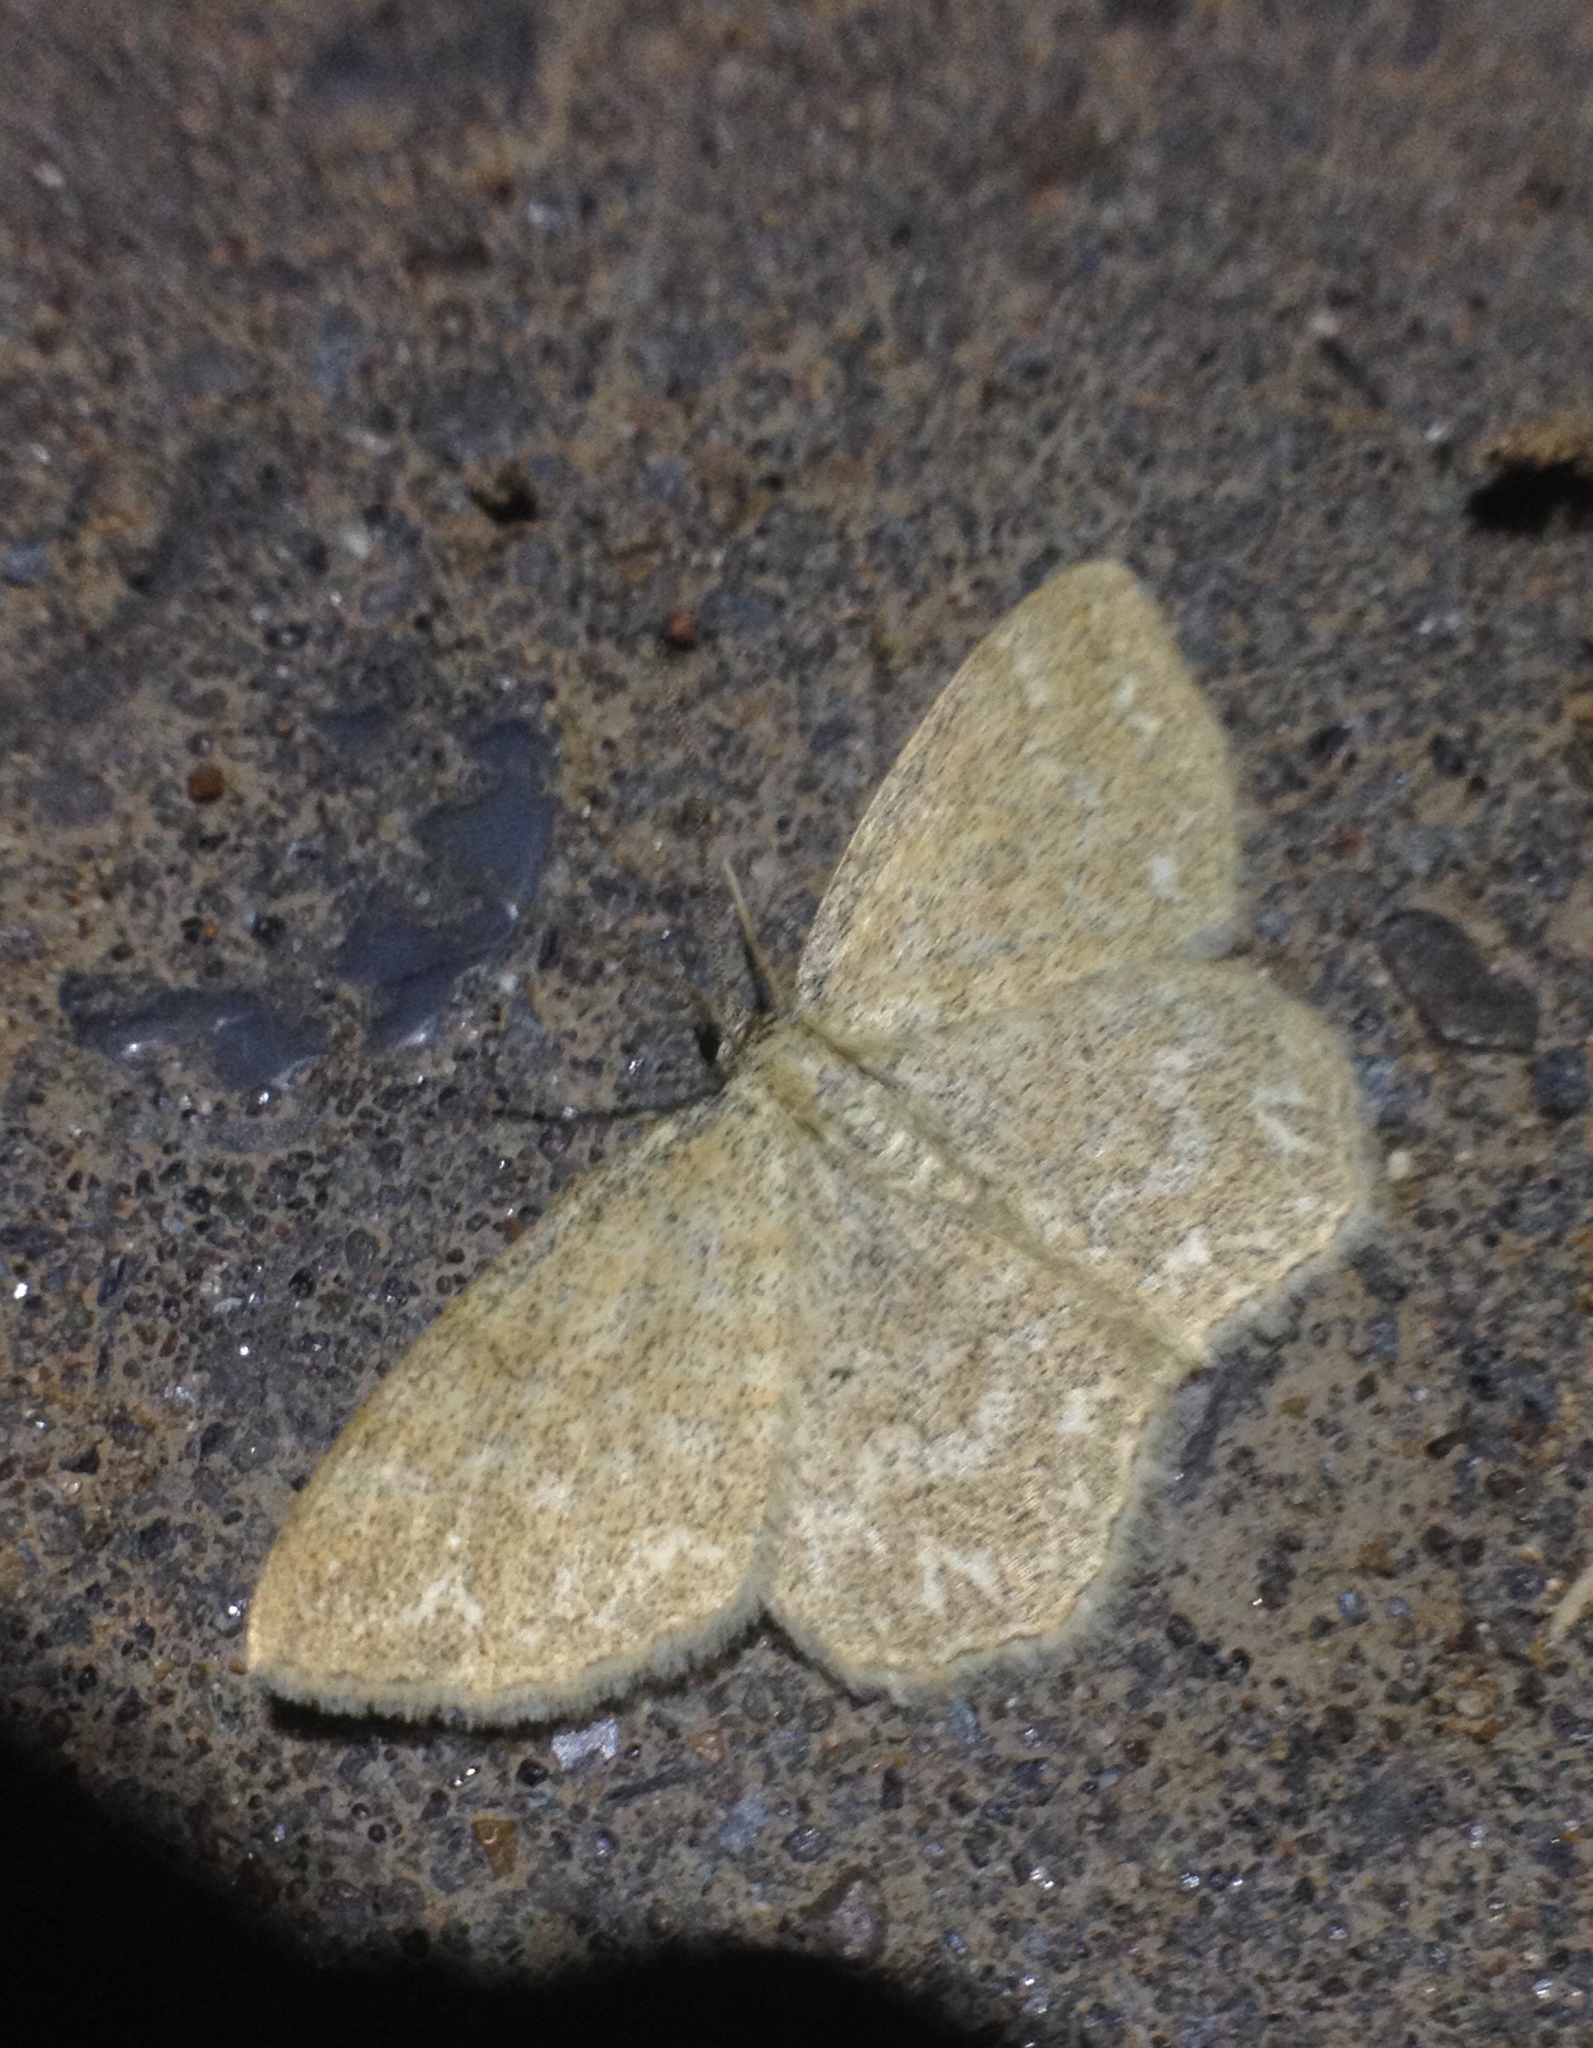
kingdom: Animalia
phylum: Arthropoda
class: Insecta
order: Lepidoptera
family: Geometridae
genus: Scopula
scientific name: Scopula immorata
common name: Lewes wave
